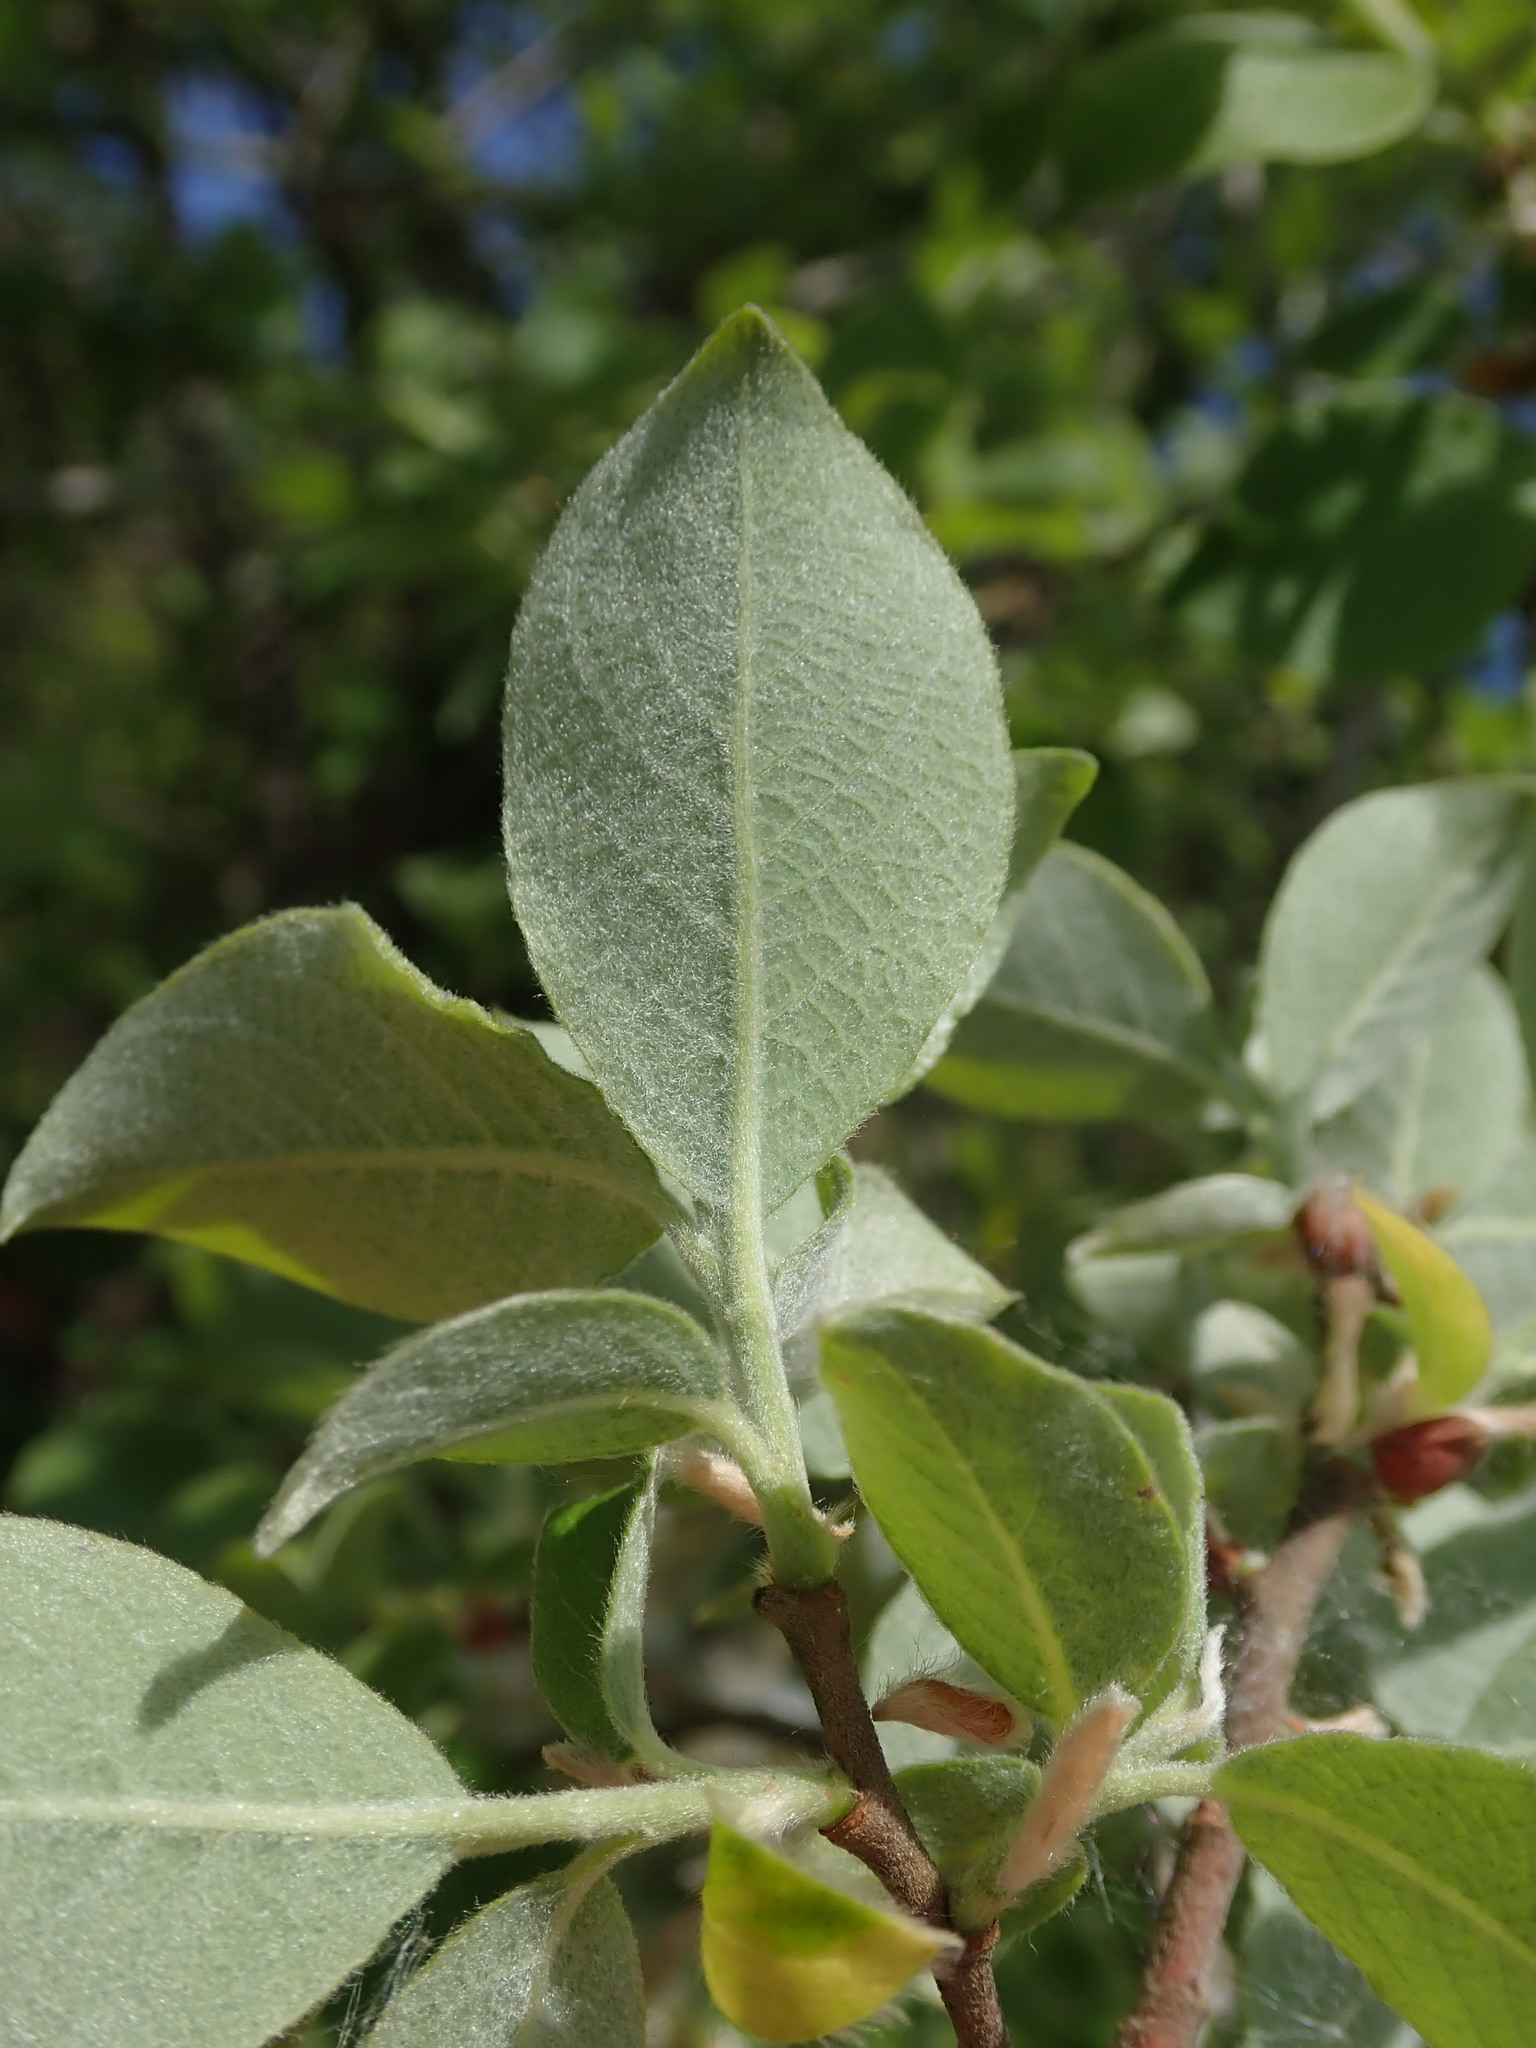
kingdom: Plantae
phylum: Tracheophyta
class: Magnoliopsida
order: Malpighiales
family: Salicaceae
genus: Salix
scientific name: Salix caprea
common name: Goat willow
